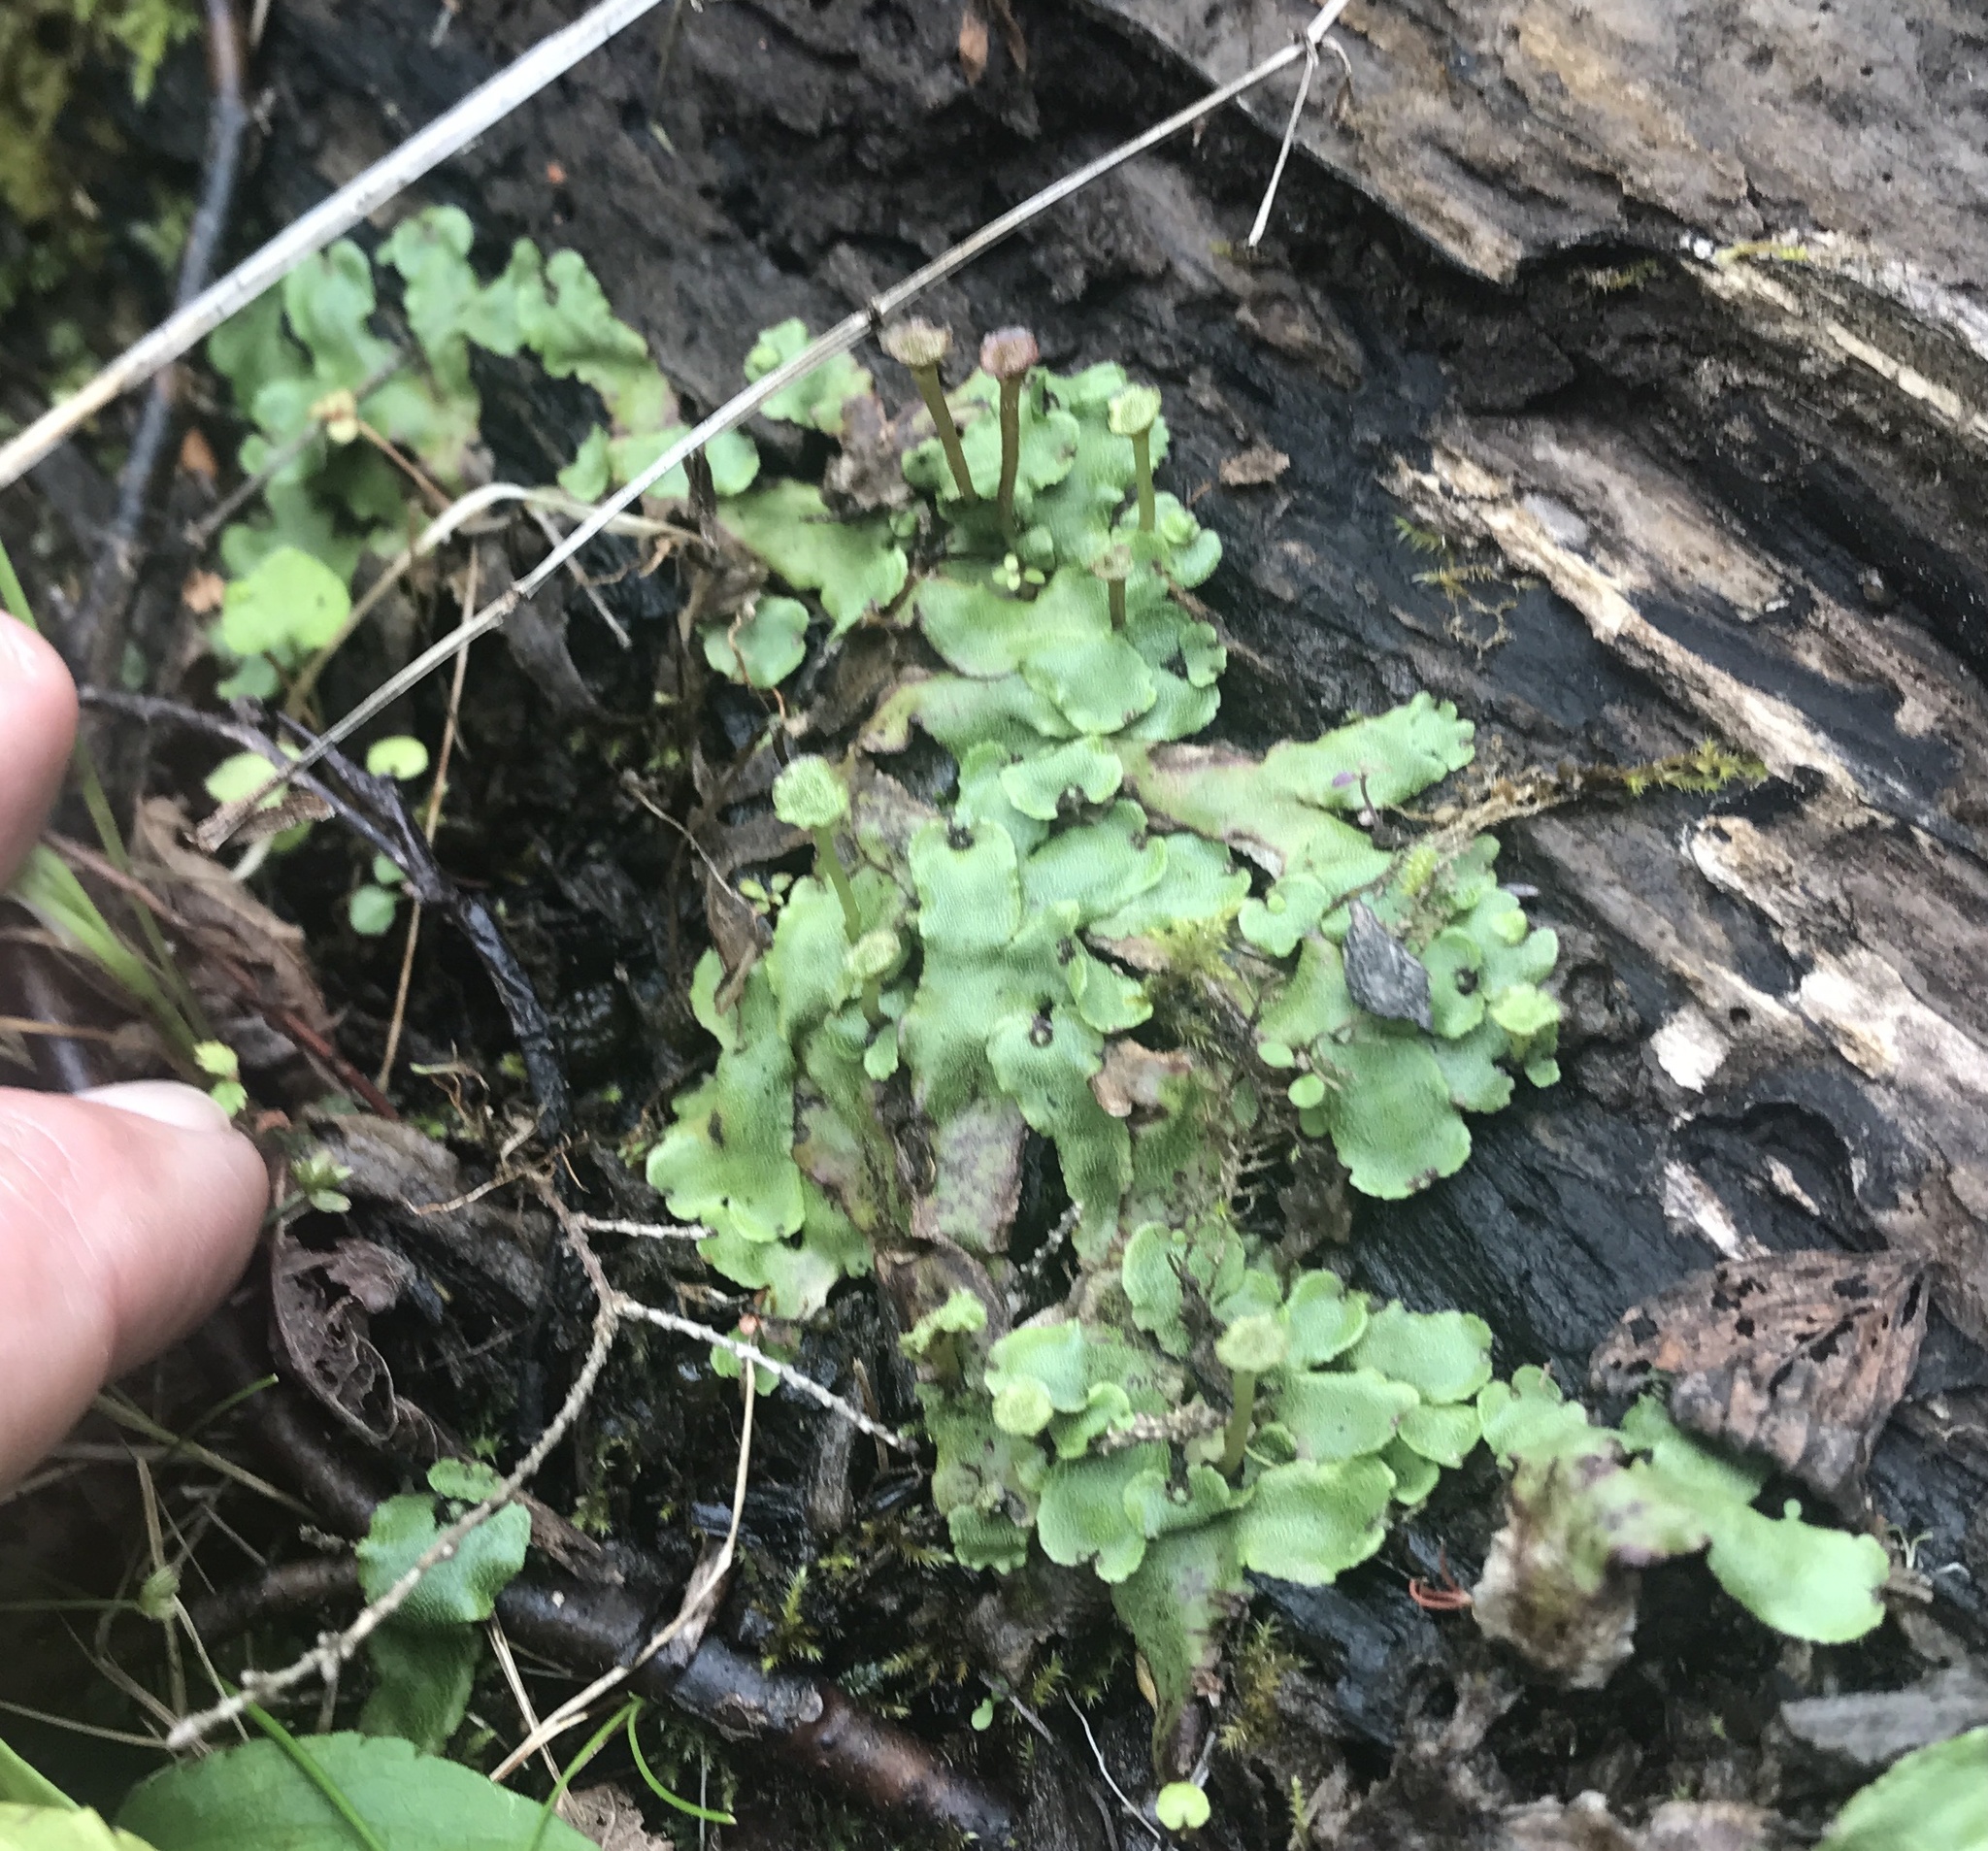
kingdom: Plantae
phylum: Marchantiophyta
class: Marchantiopsida
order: Marchantiales
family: Marchantiaceae
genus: Marchantia
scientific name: Marchantia quadrata
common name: Narrow mushroom-headed liverwort
